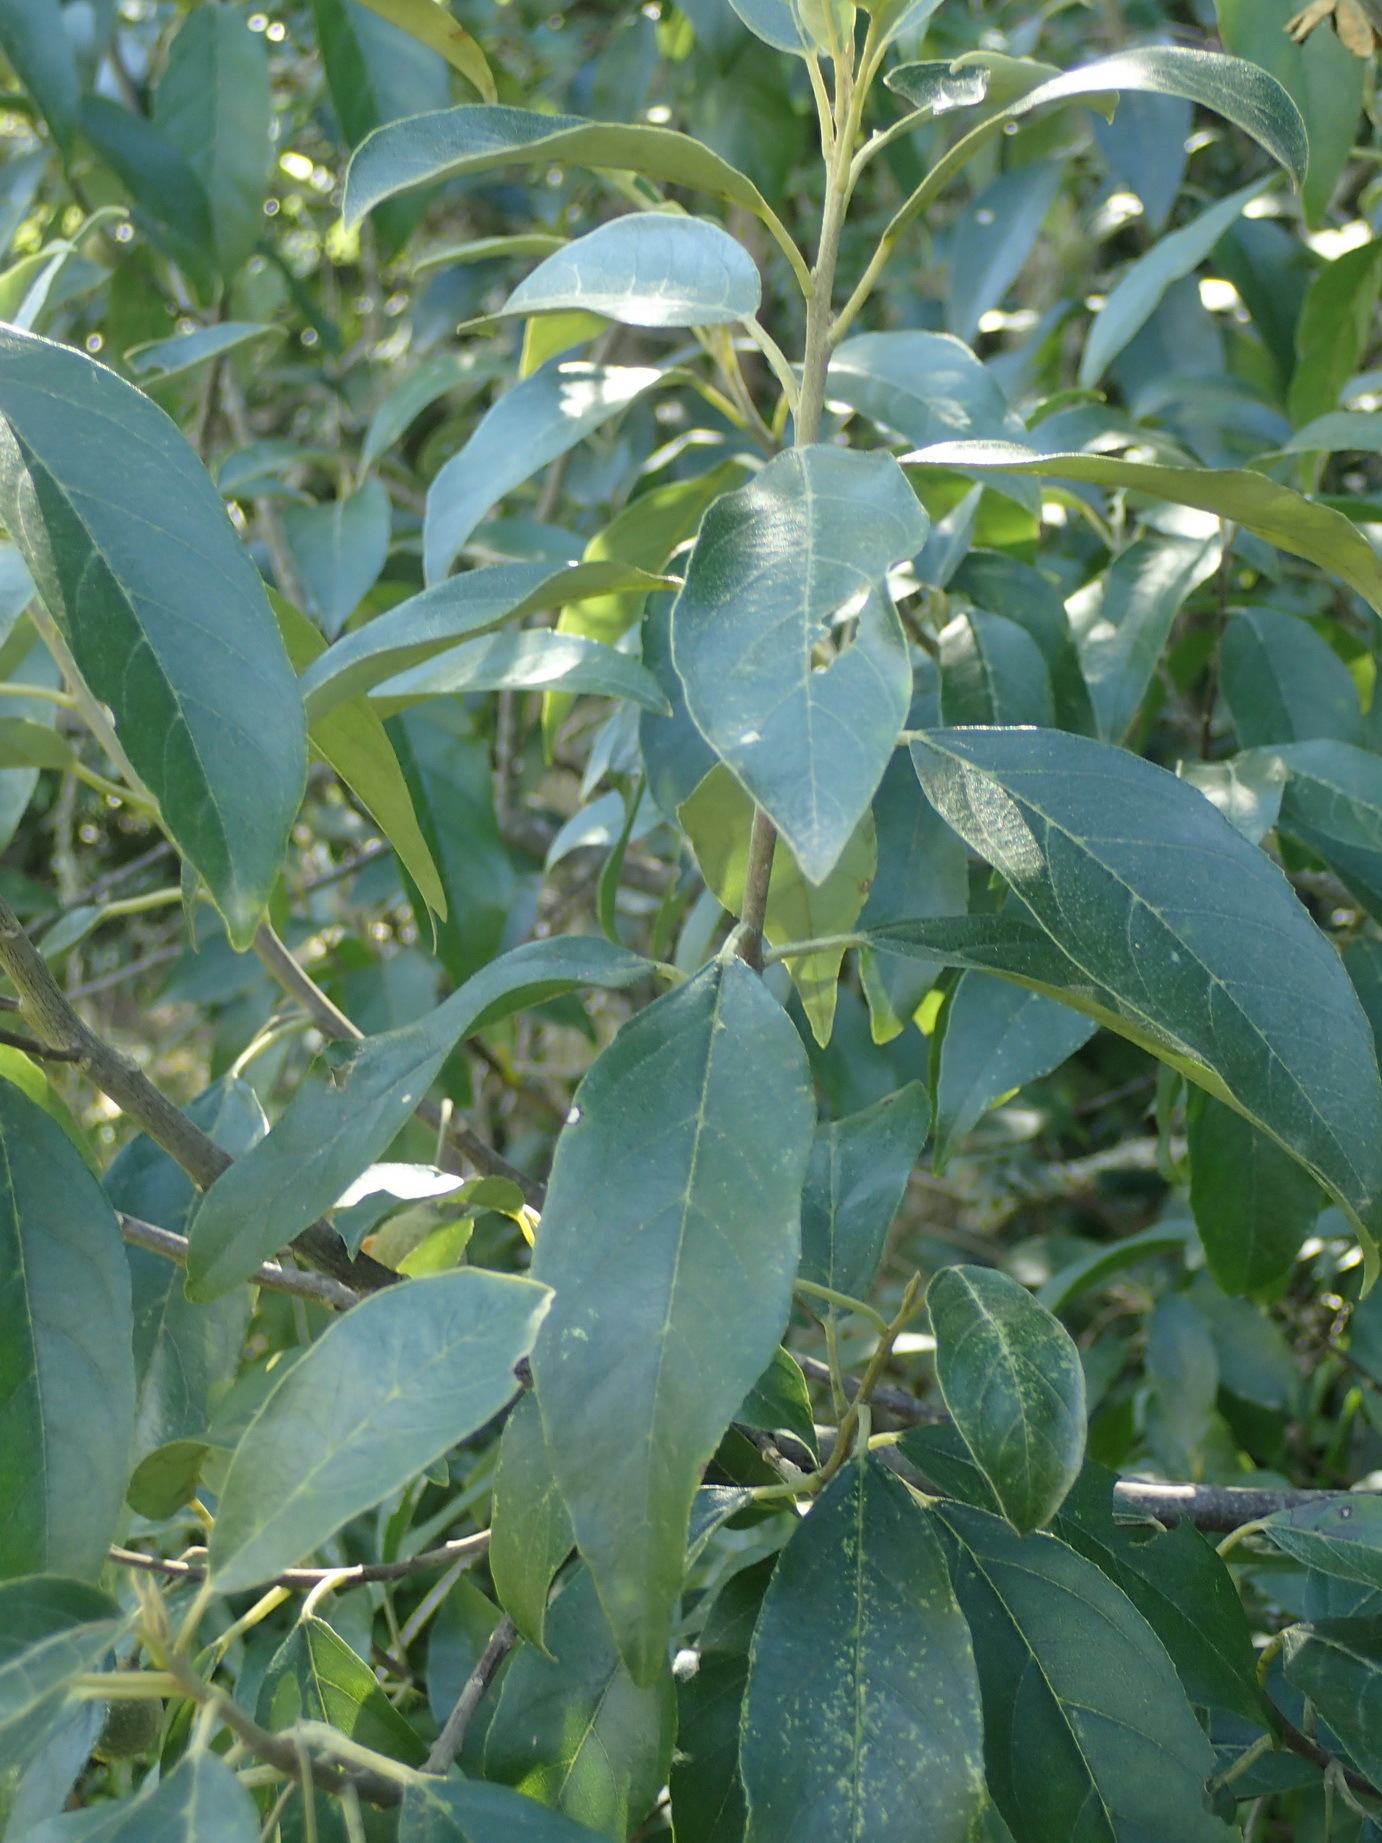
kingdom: Plantae
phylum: Tracheophyta
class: Magnoliopsida
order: Malpighiales
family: Achariaceae
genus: Kiggelaria
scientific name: Kiggelaria africana
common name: Wild peach
